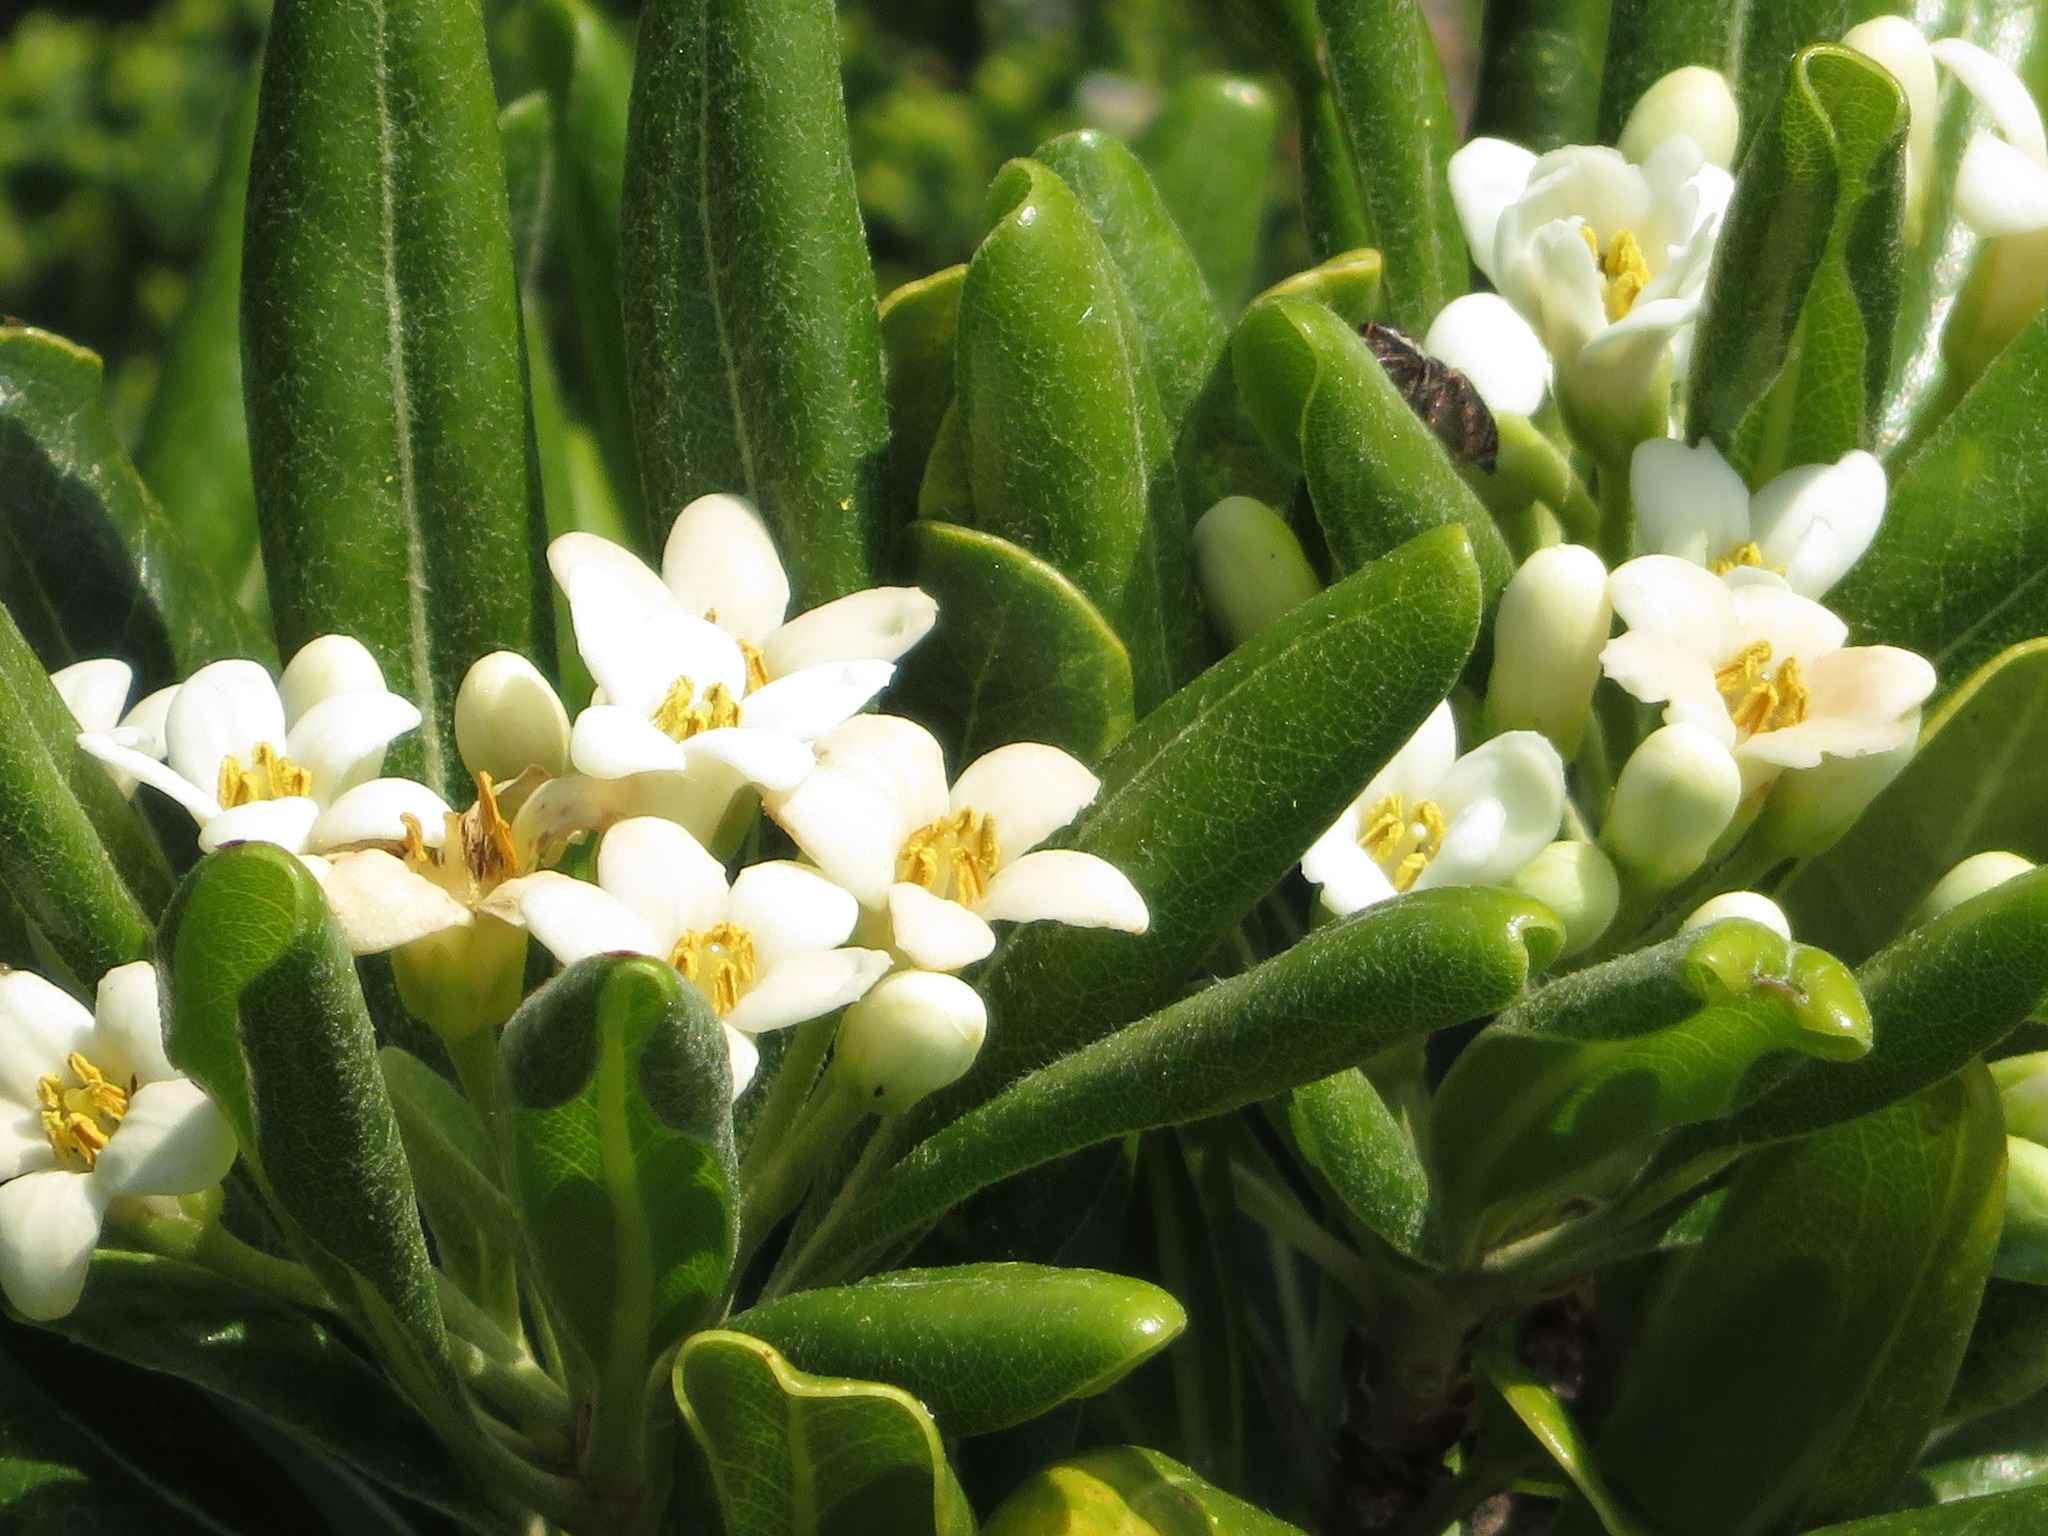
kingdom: Plantae
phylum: Tracheophyta
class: Magnoliopsida
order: Apiales
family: Pittosporaceae
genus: Pittosporum
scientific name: Pittosporum tobira
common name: Japanese cheesewood
